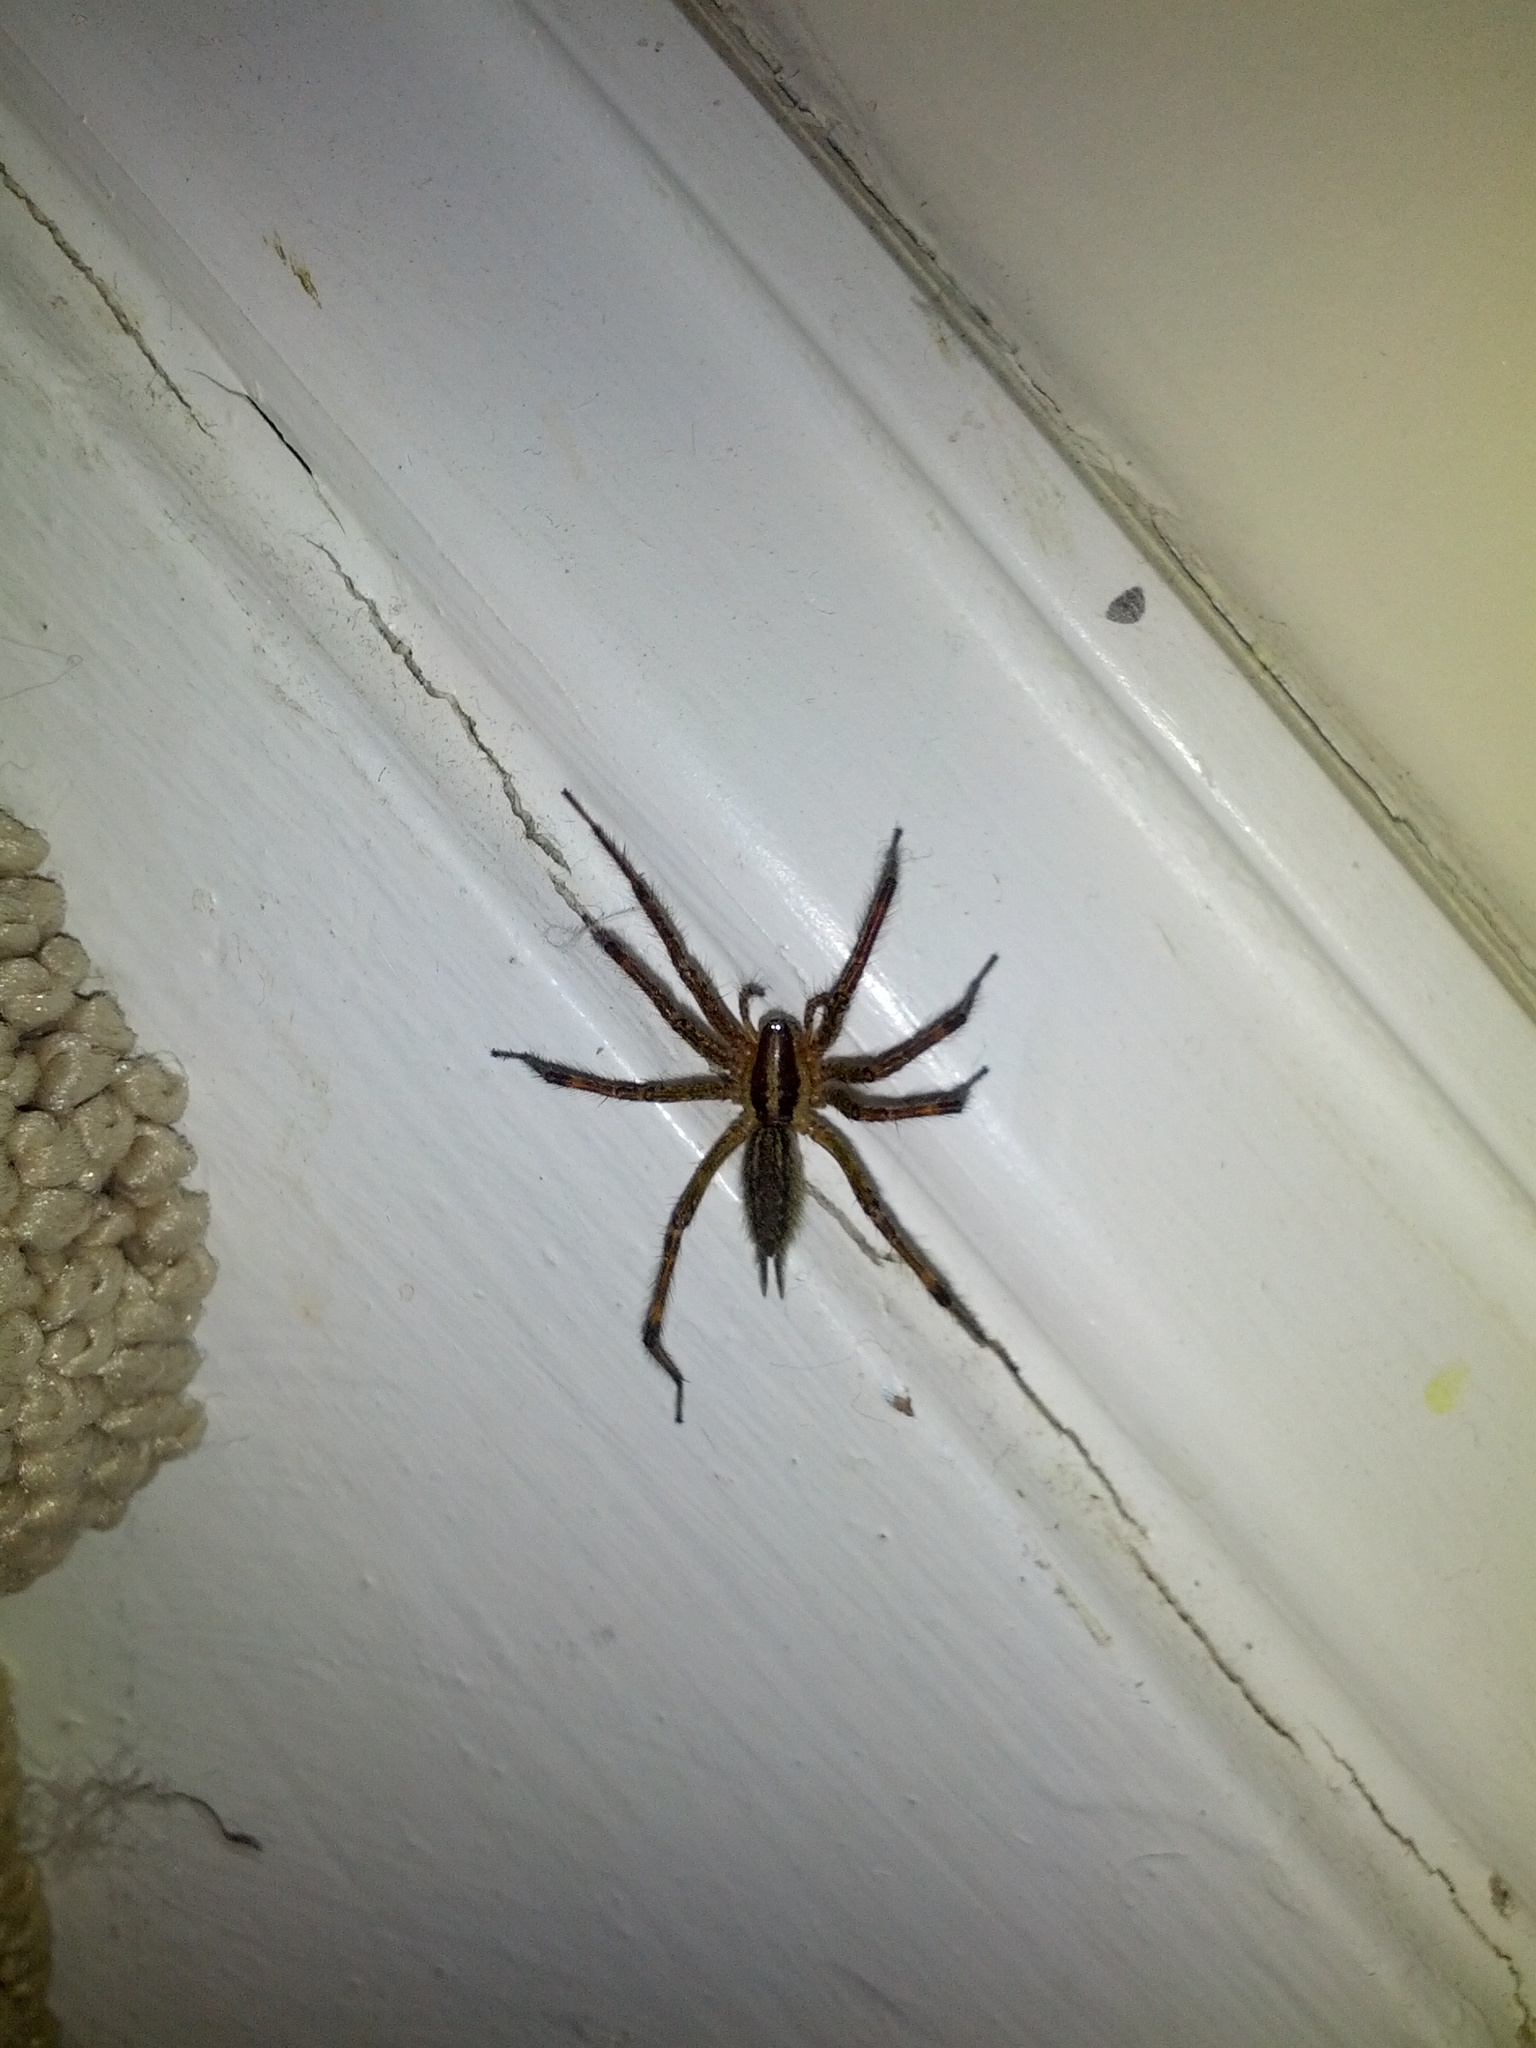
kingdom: Animalia
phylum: Arthropoda
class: Arachnida
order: Araneae
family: Agelenidae
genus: Agelenopsis
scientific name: Agelenopsis
